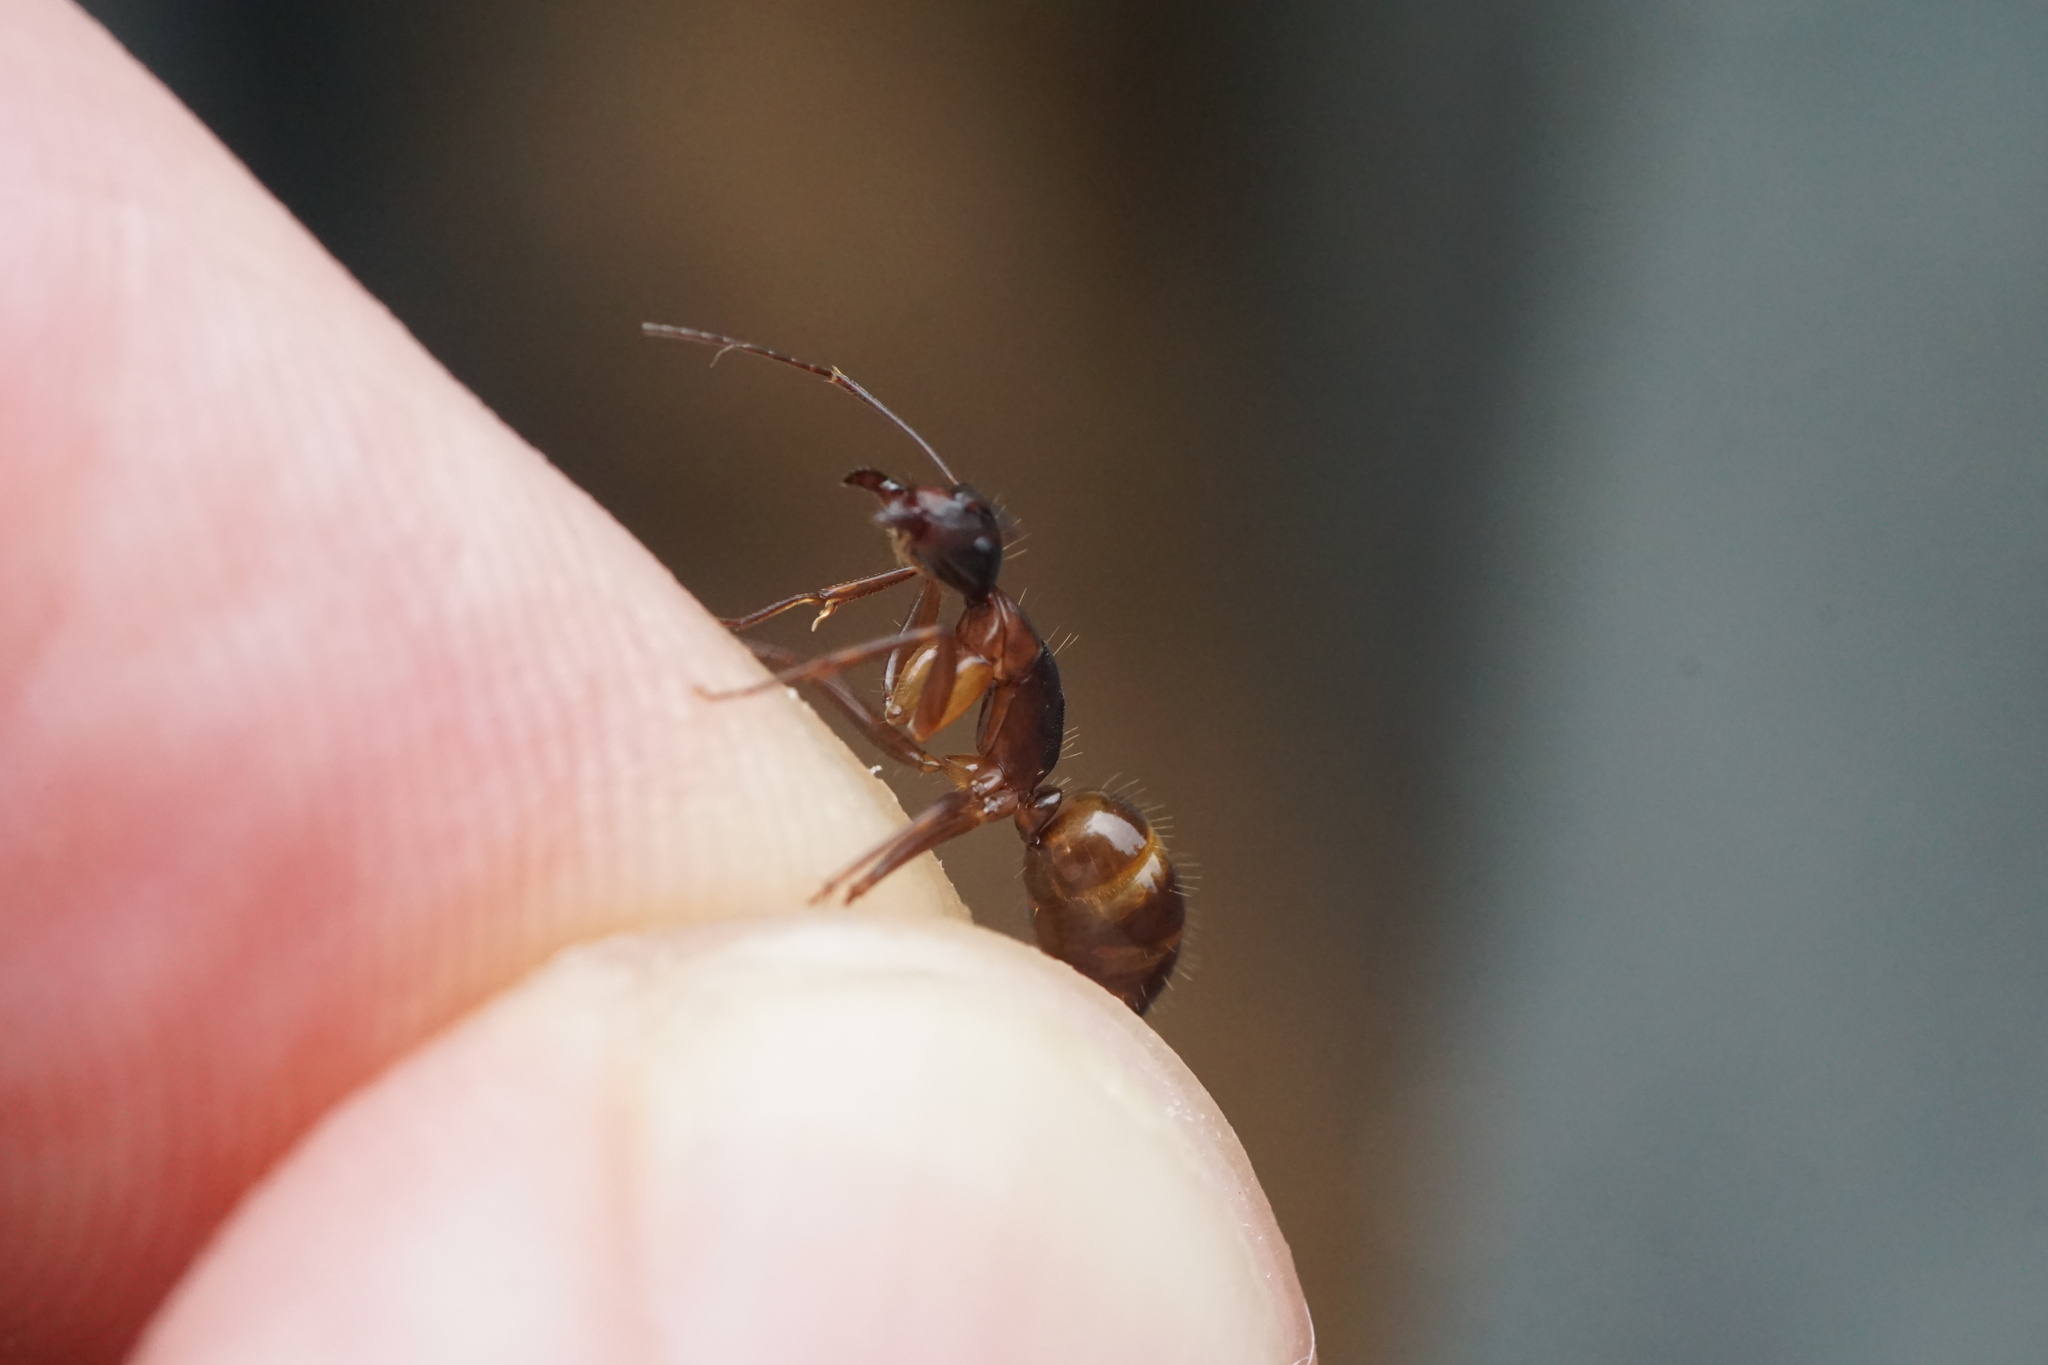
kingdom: Animalia
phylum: Arthropoda
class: Insecta
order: Hymenoptera
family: Formicidae
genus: Camponotus
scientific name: Camponotus americanus
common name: American carpenter ant
